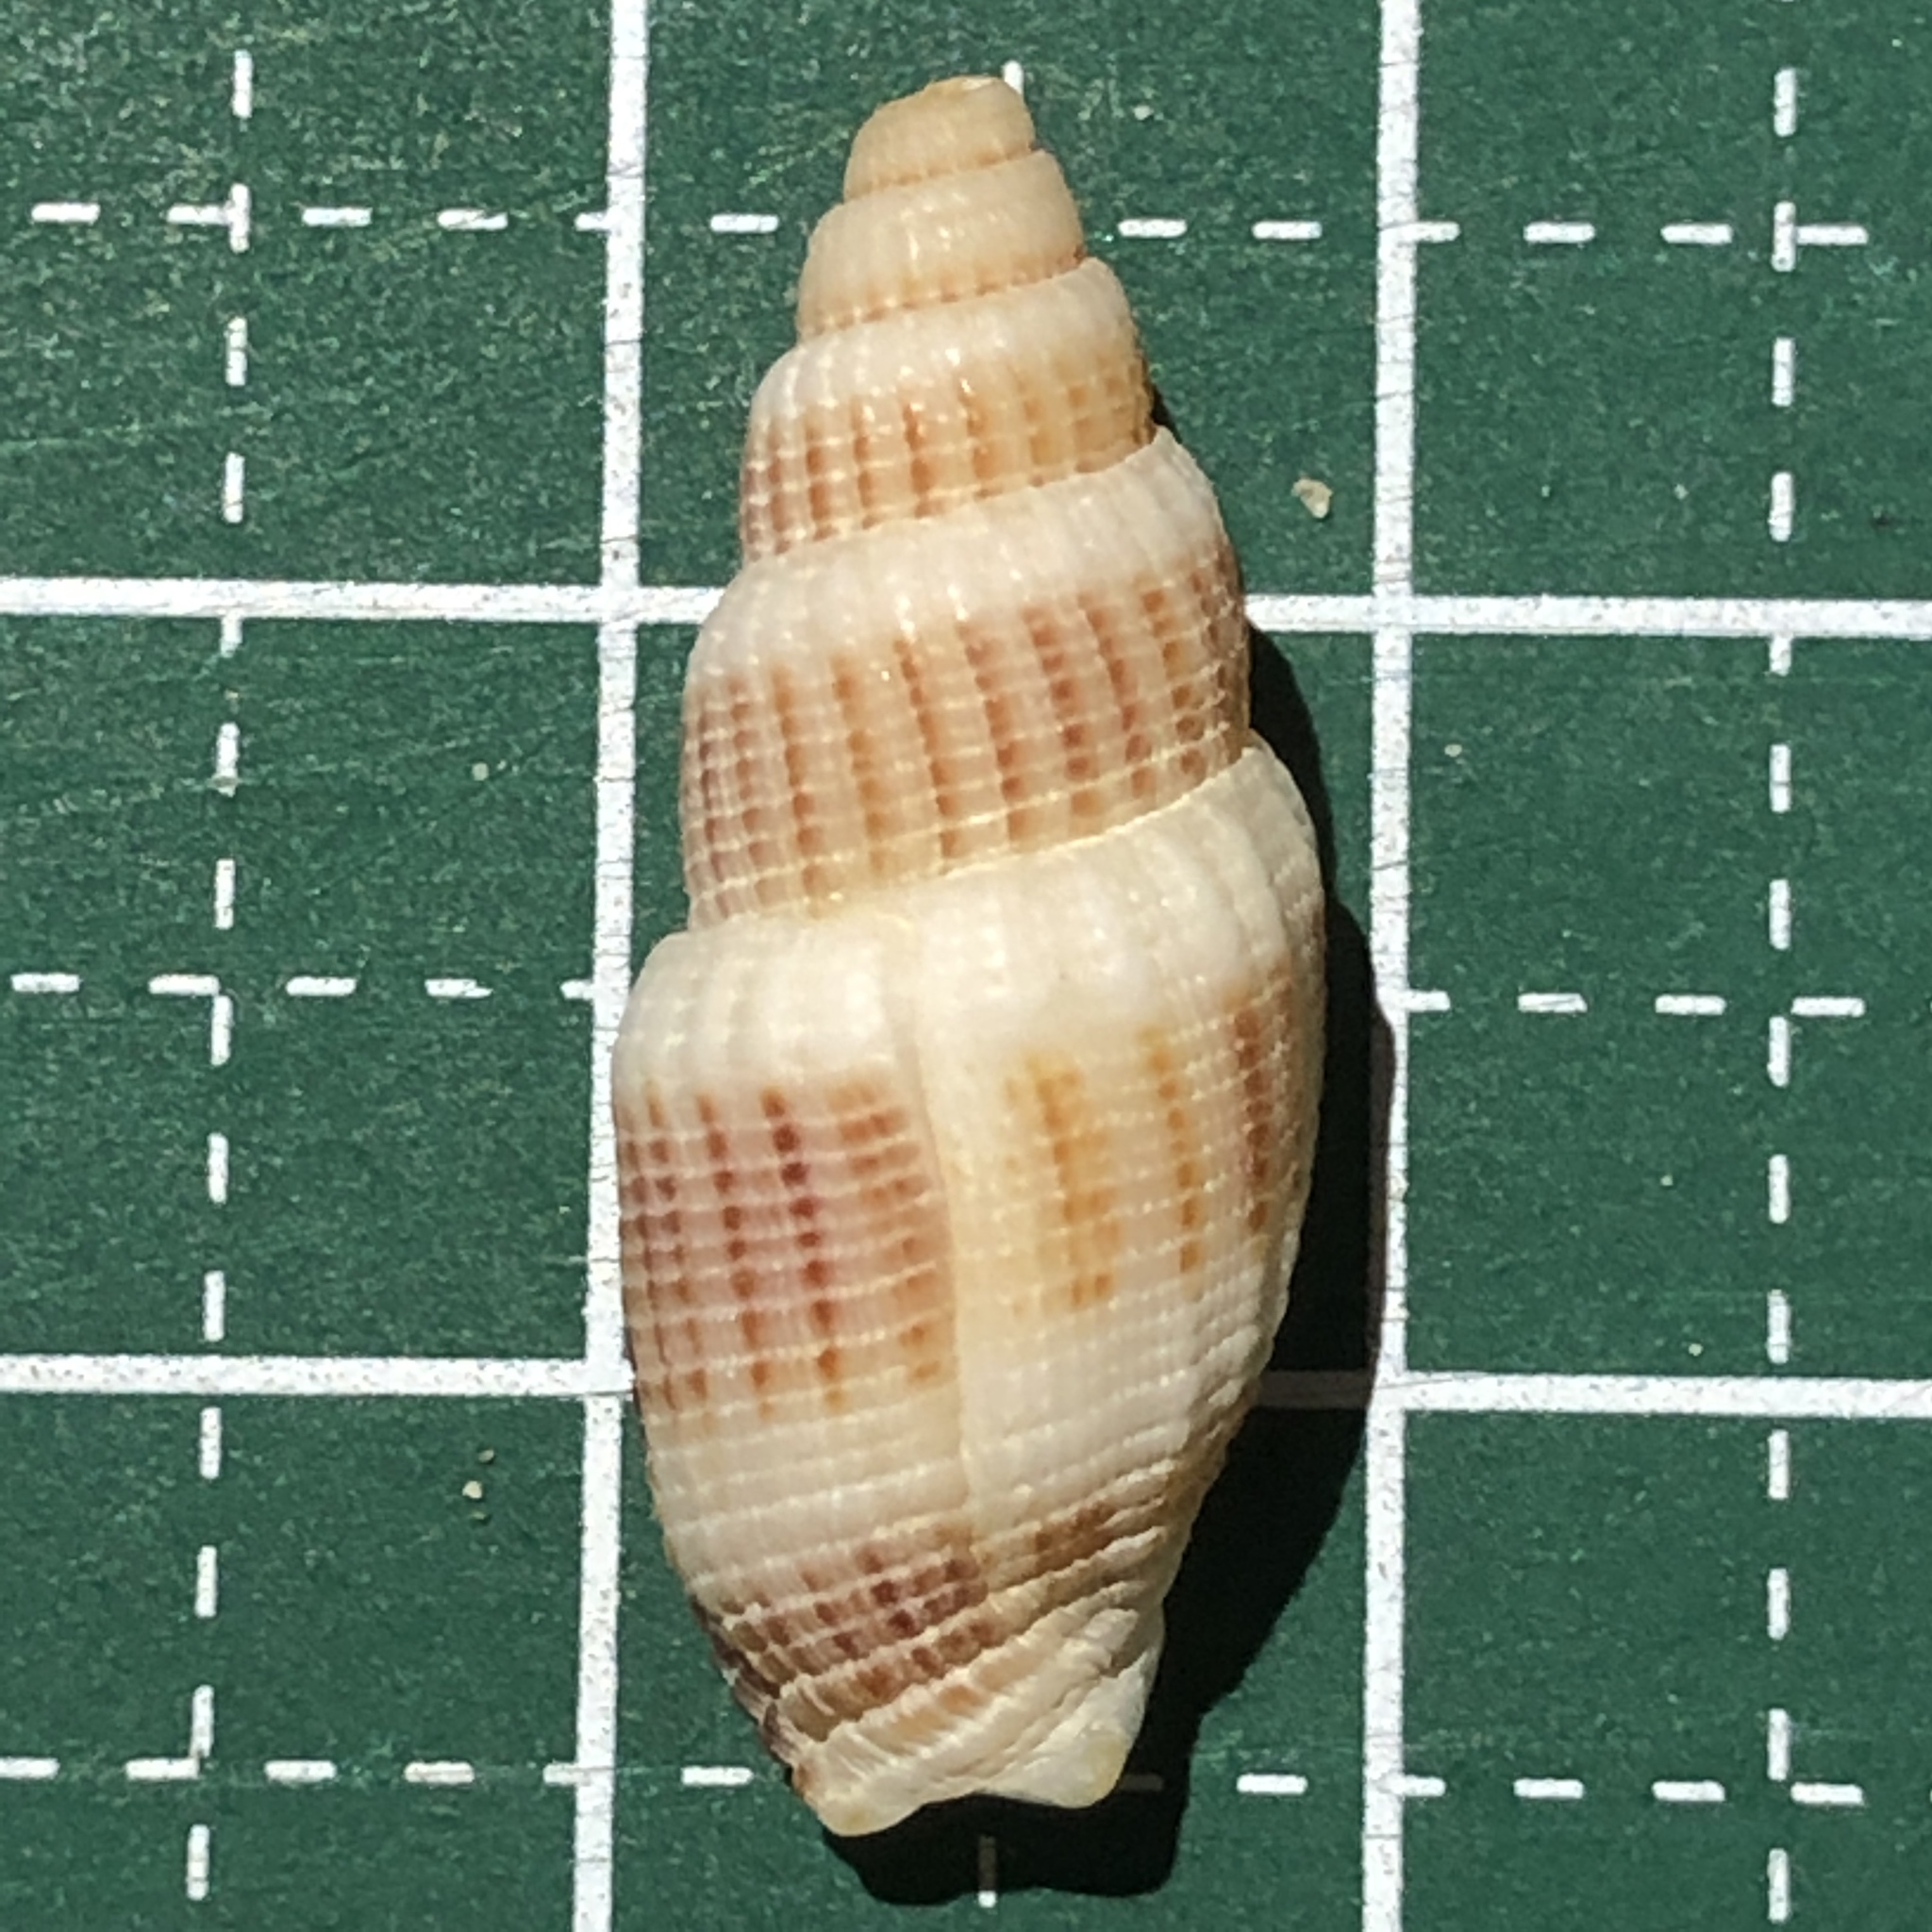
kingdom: Animalia
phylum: Mollusca
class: Gastropoda
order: Neogastropoda
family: Costellariidae
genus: Vexillum
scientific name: Vexillum exasperatum
